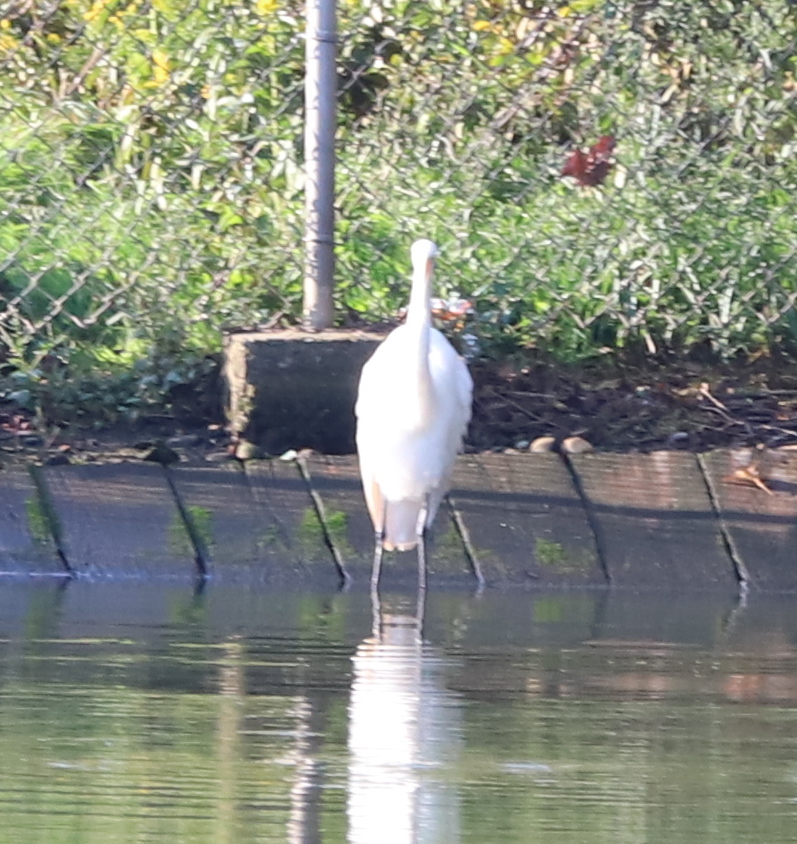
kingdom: Animalia
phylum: Chordata
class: Aves
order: Pelecaniformes
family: Ardeidae
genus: Ardea
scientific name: Ardea alba
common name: Great egret
